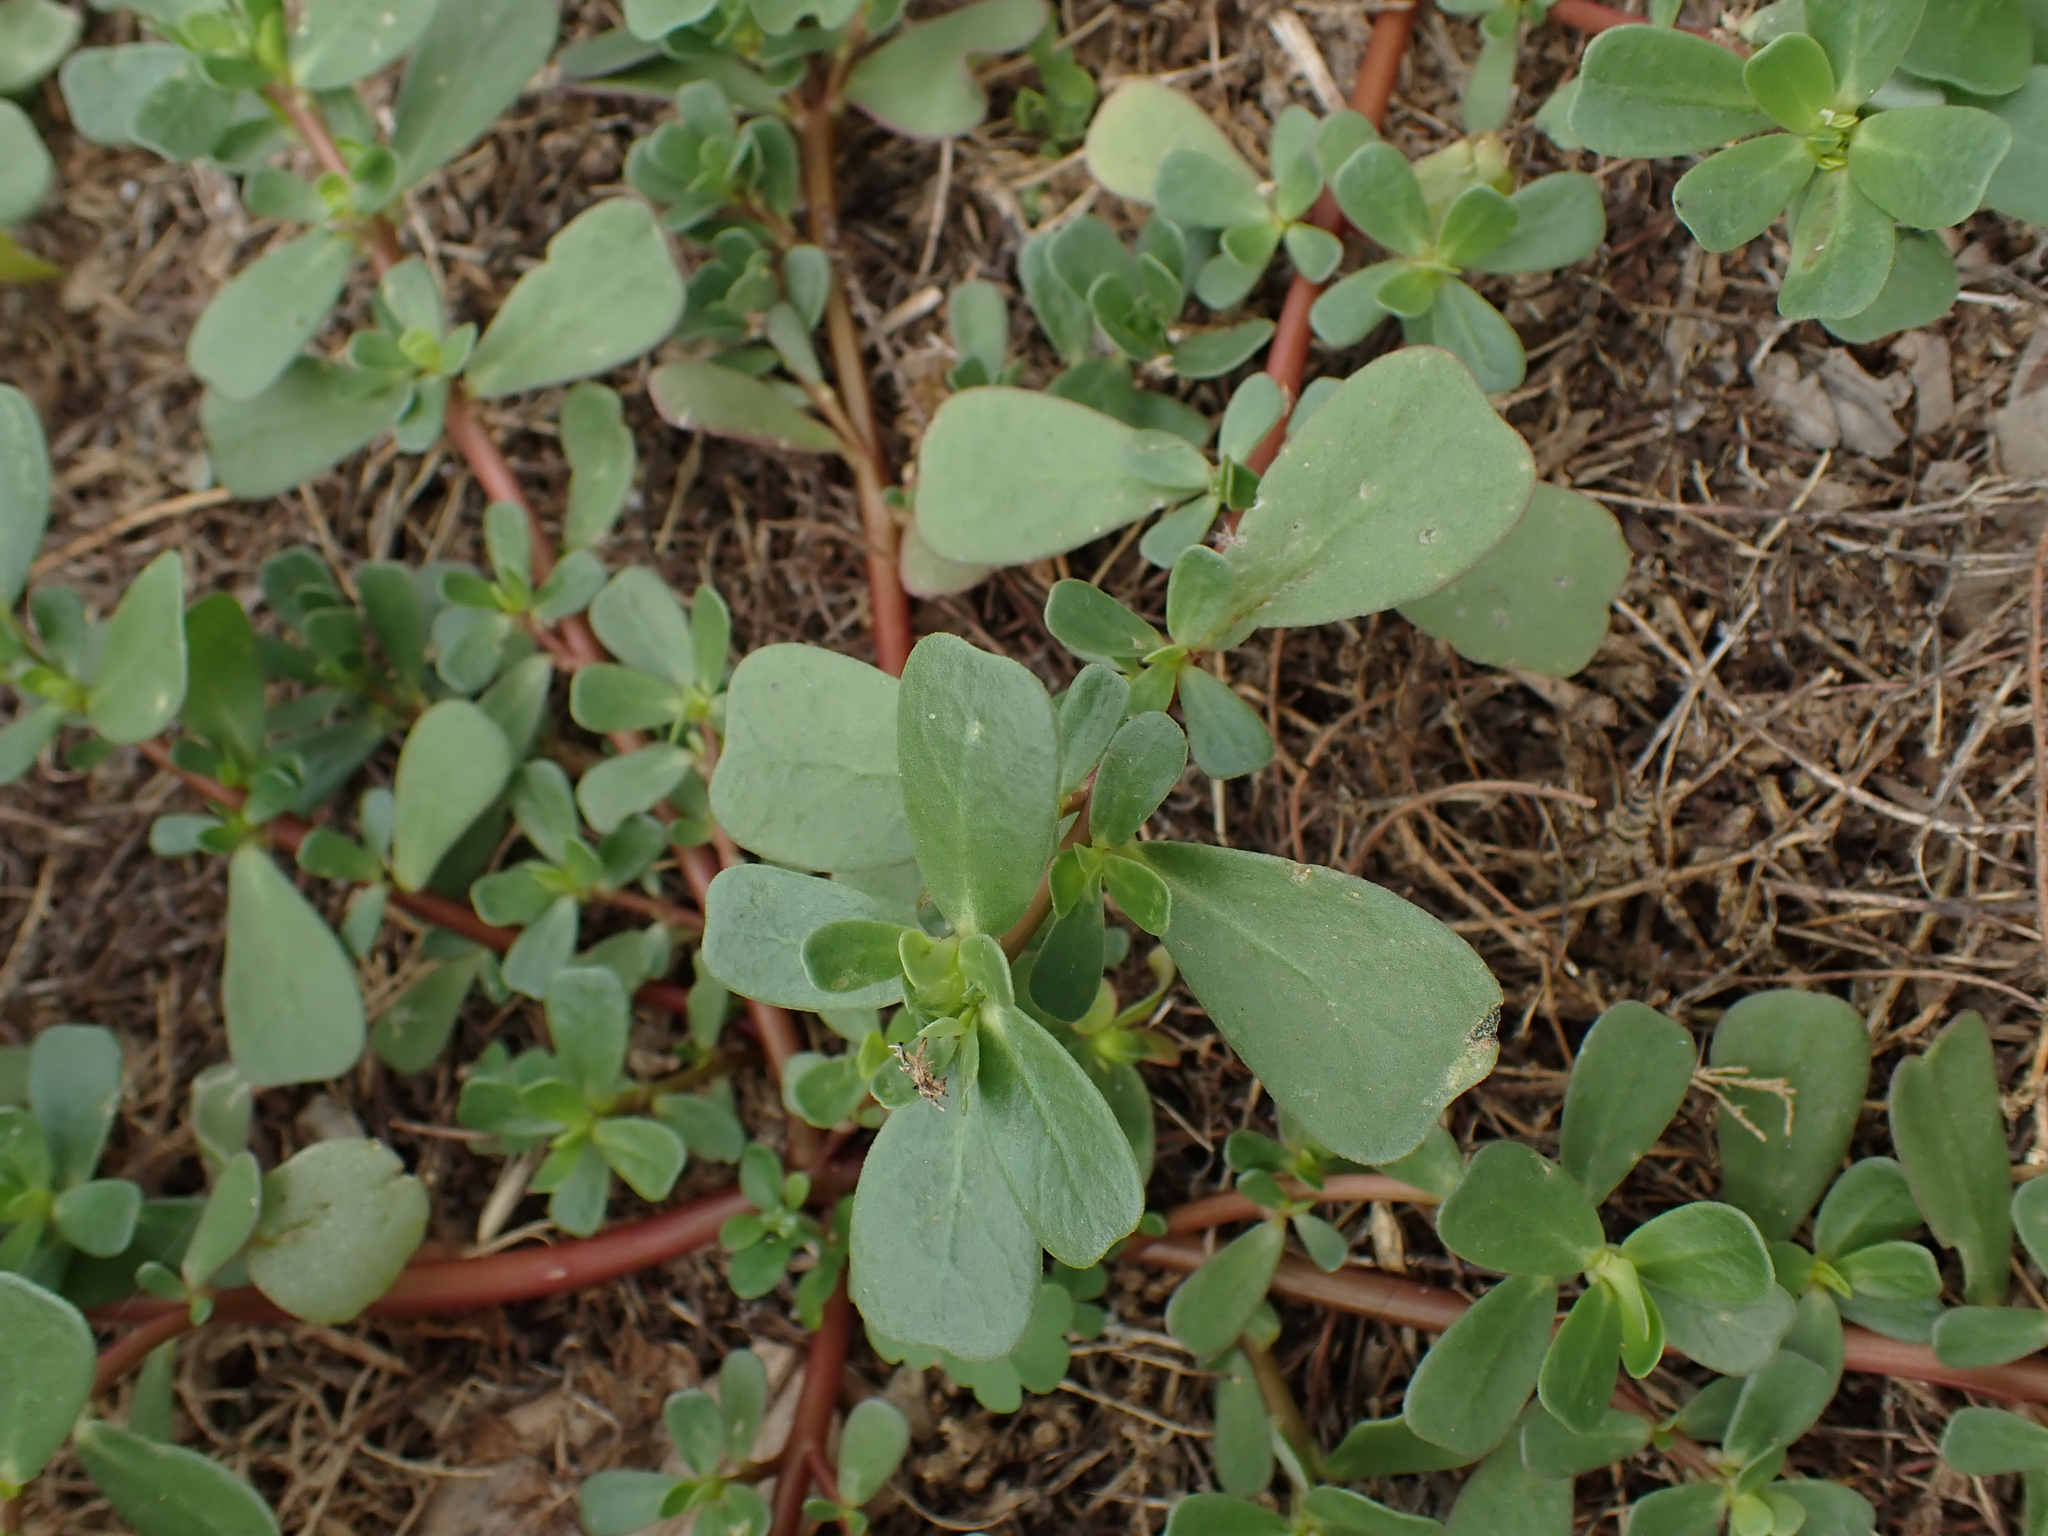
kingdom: Plantae
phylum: Tracheophyta
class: Magnoliopsida
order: Caryophyllales
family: Portulacaceae
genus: Portulaca
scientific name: Portulaca oleracea
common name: Common purslane
